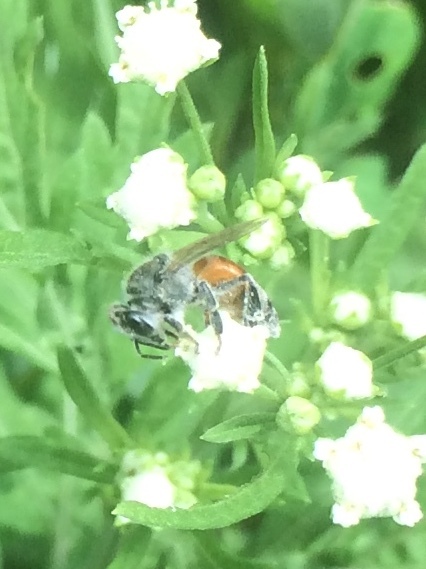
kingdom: Animalia
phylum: Arthropoda
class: Insecta
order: Hymenoptera
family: Apidae
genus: Apis
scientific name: Apis florea
